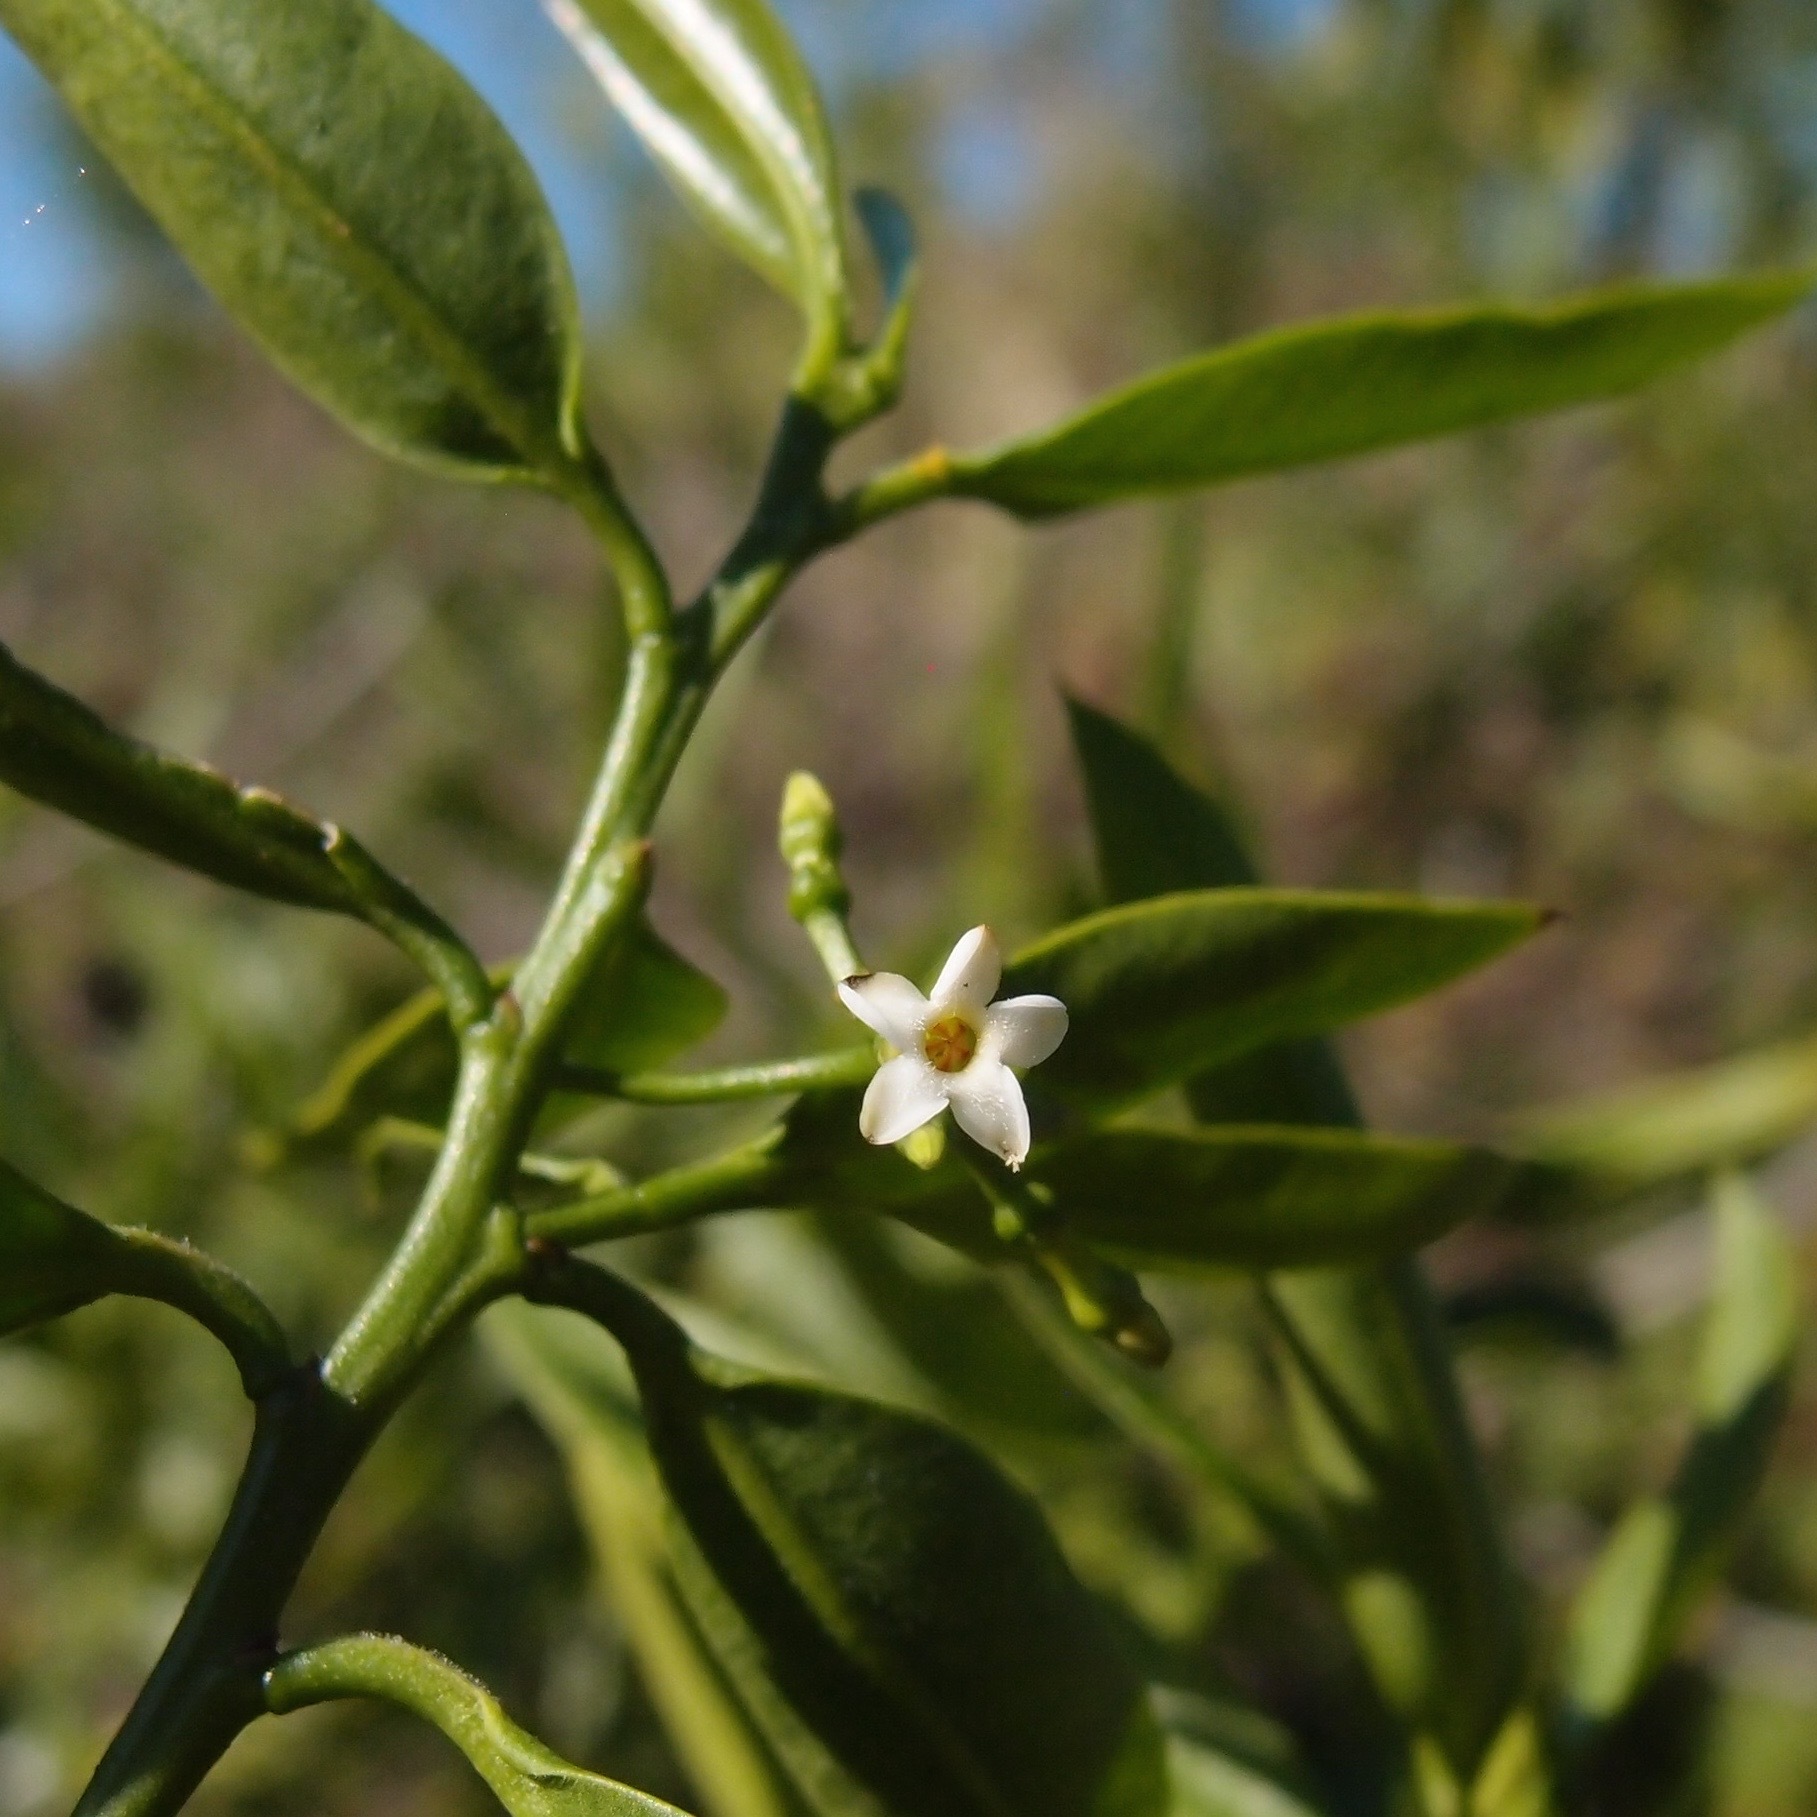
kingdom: Plantae
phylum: Tracheophyta
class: Magnoliopsida
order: Gentianales
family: Apocynaceae
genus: Vallesia
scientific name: Vallesia glabra
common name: Pearlberry
